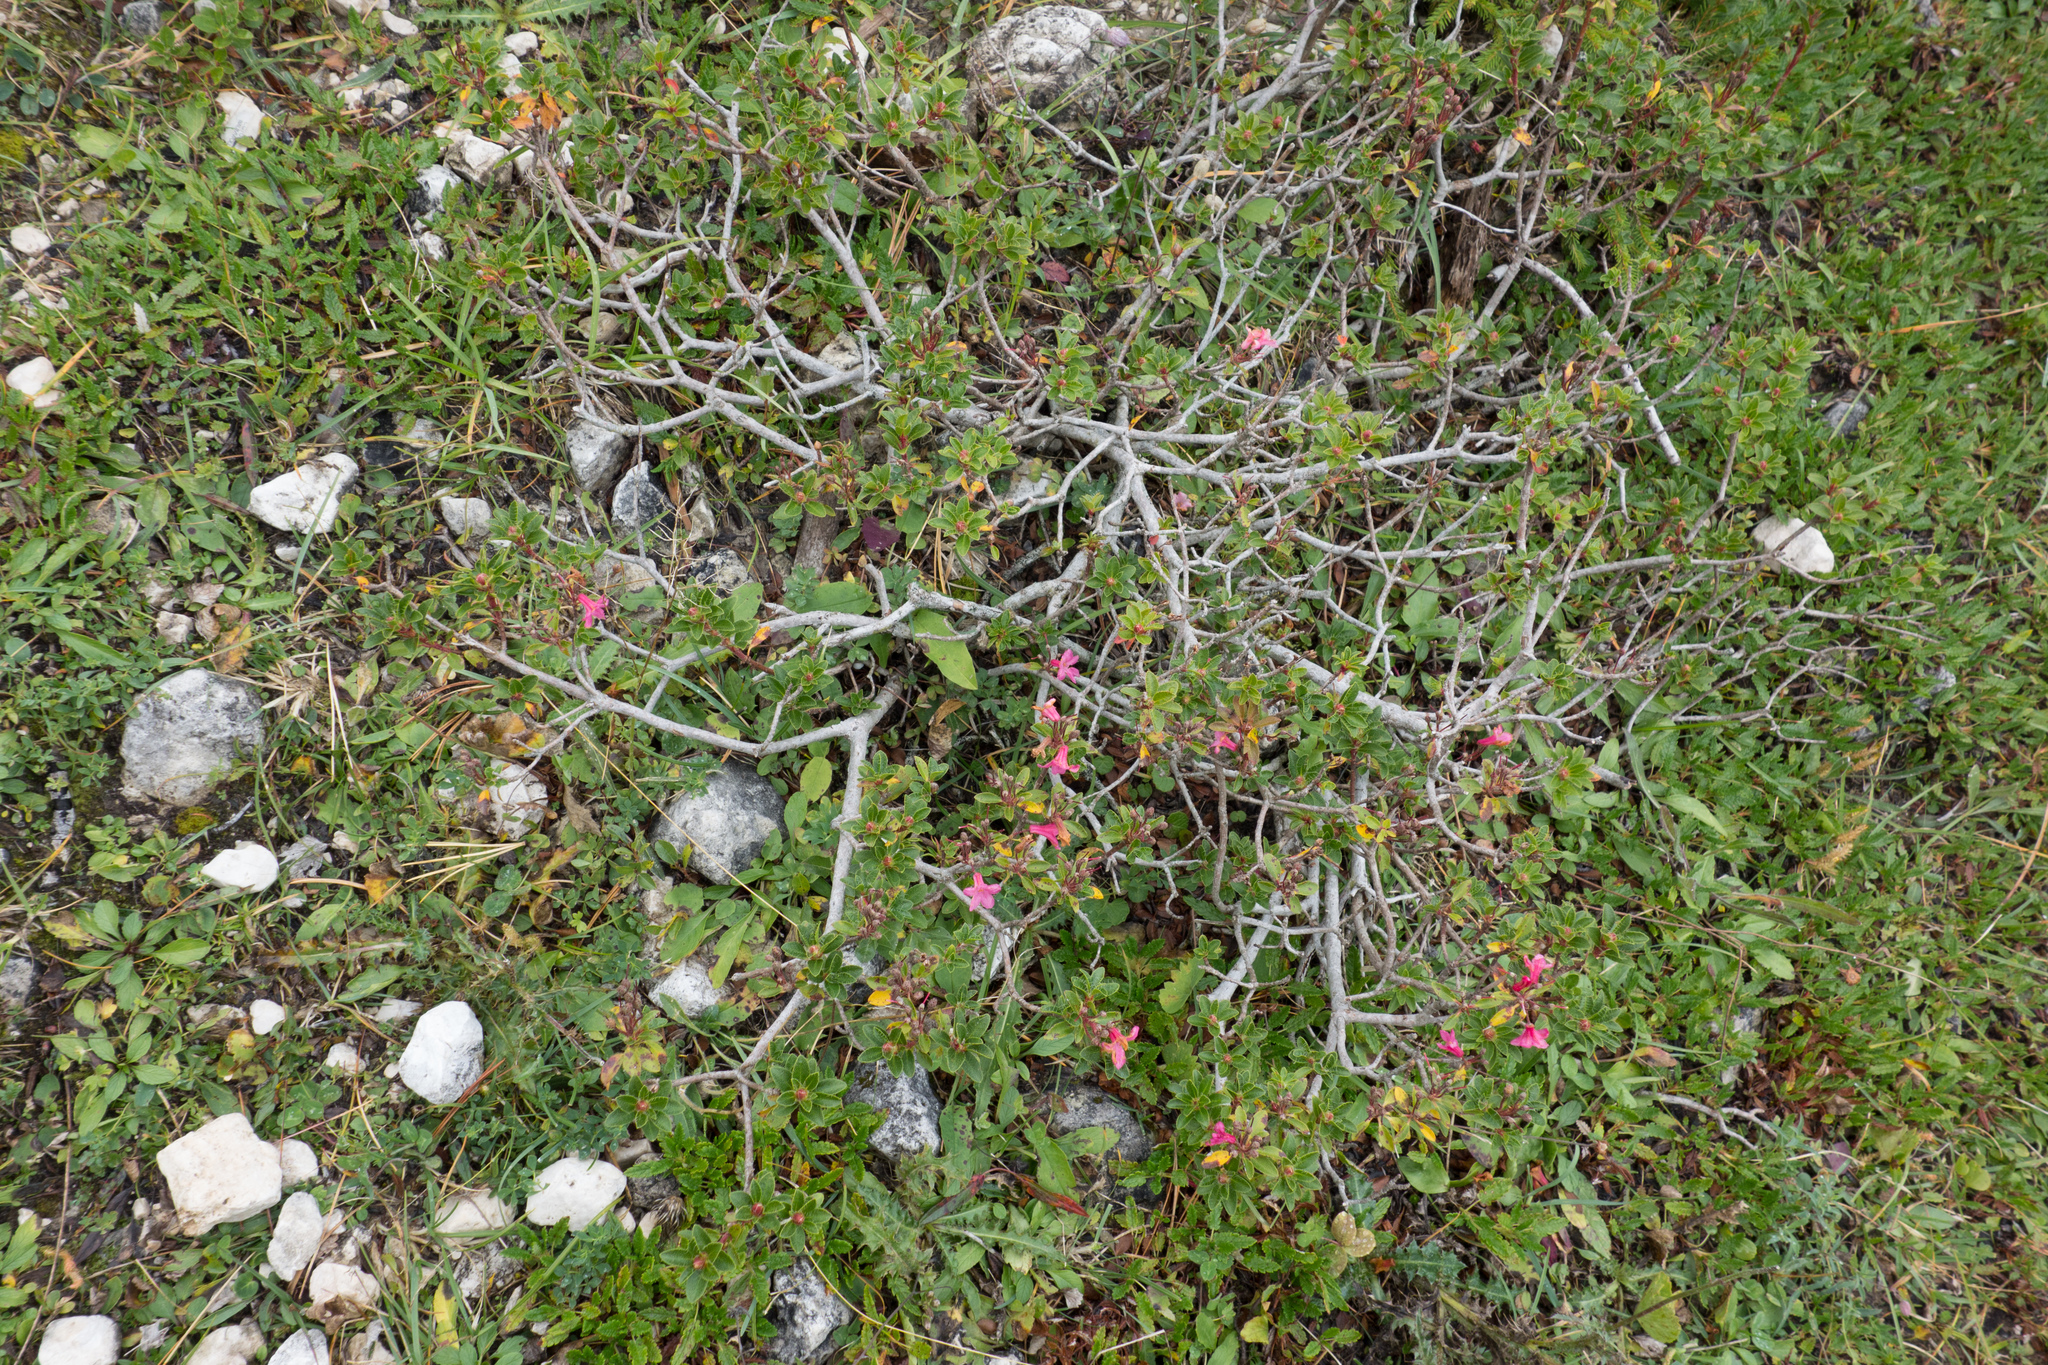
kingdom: Plantae
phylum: Tracheophyta
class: Magnoliopsida
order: Ericales
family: Ericaceae
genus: Rhododendron
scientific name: Rhododendron hirsutum
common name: Hairy alpenrose
